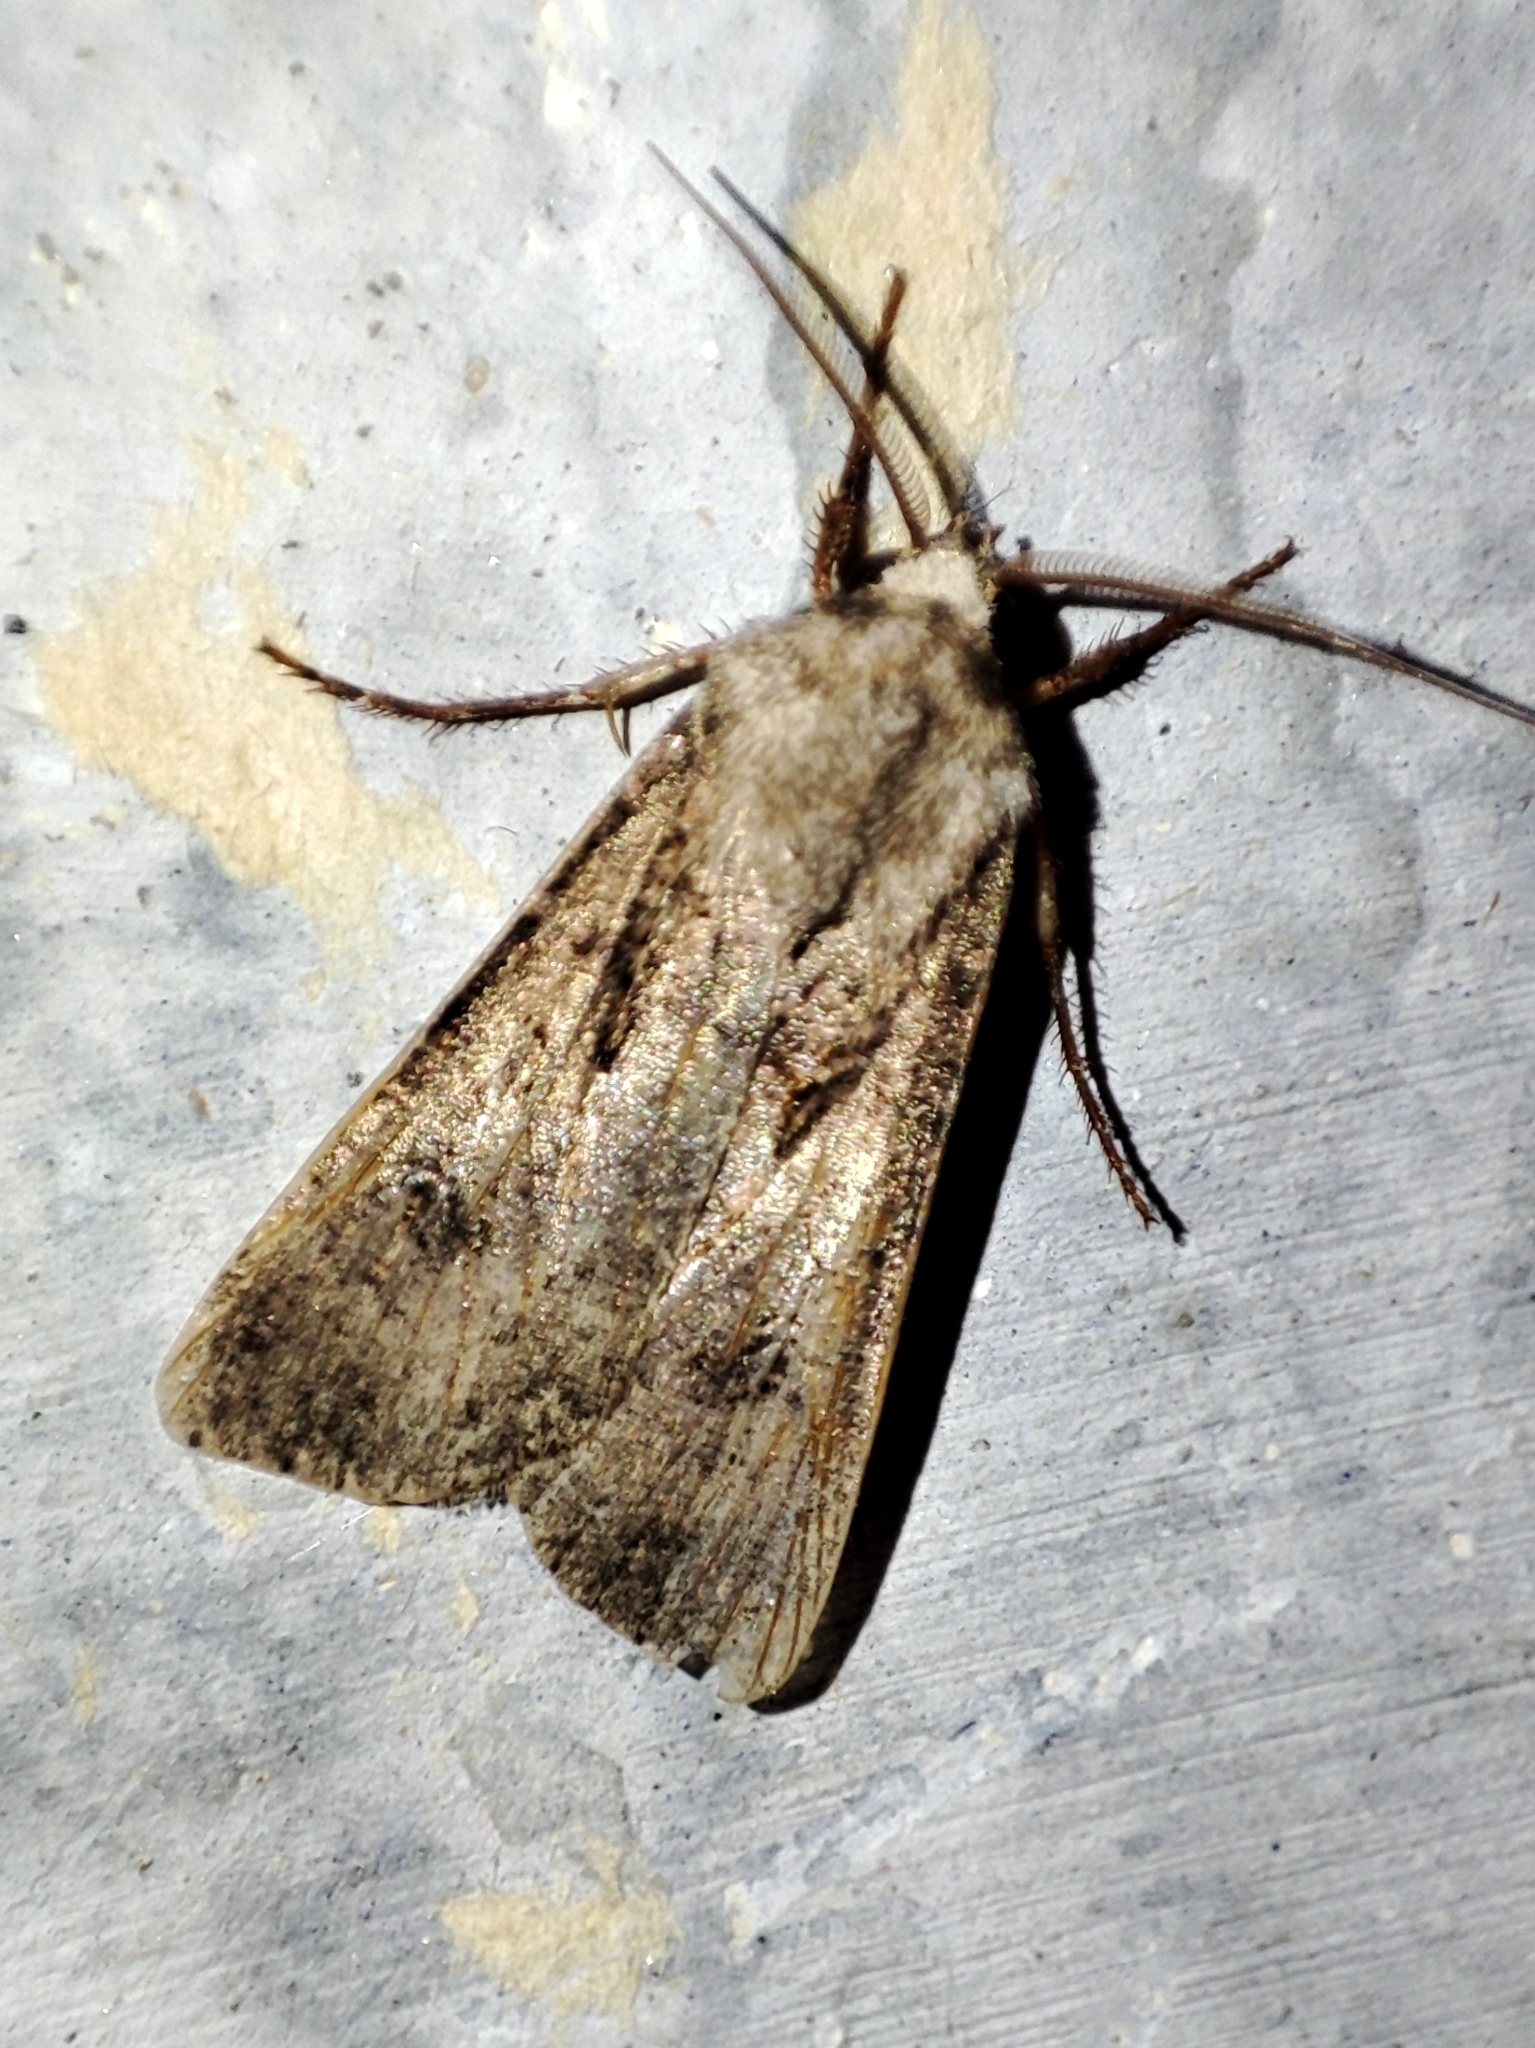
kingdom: Animalia
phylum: Arthropoda
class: Insecta
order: Lepidoptera
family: Noctuidae
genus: Agrotis
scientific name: Agrotis segetum
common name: Turnip moth
